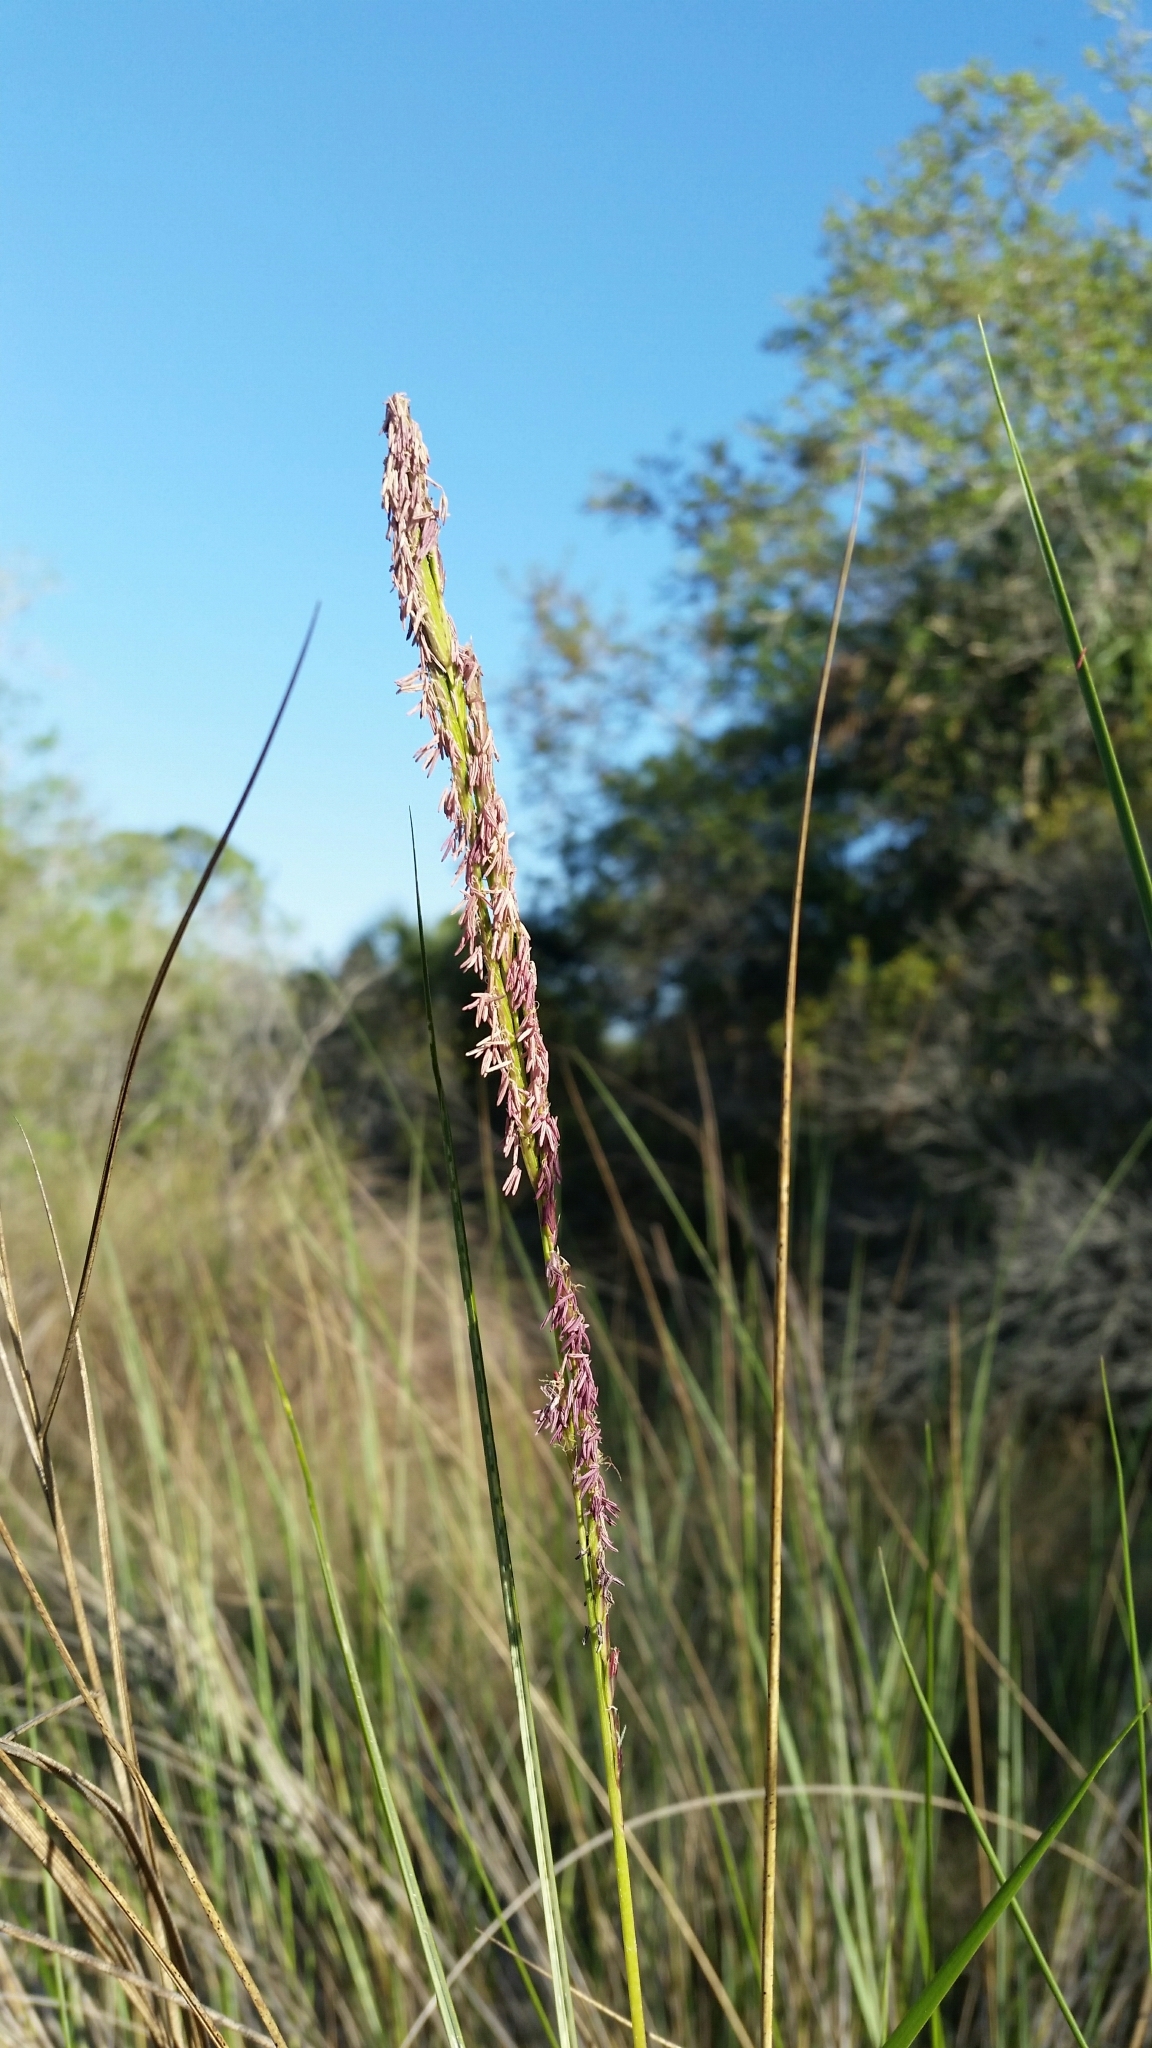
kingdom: Plantae
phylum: Tracheophyta
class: Liliopsida
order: Poales
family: Poaceae
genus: Sporobolus
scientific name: Sporobolus bakeri
